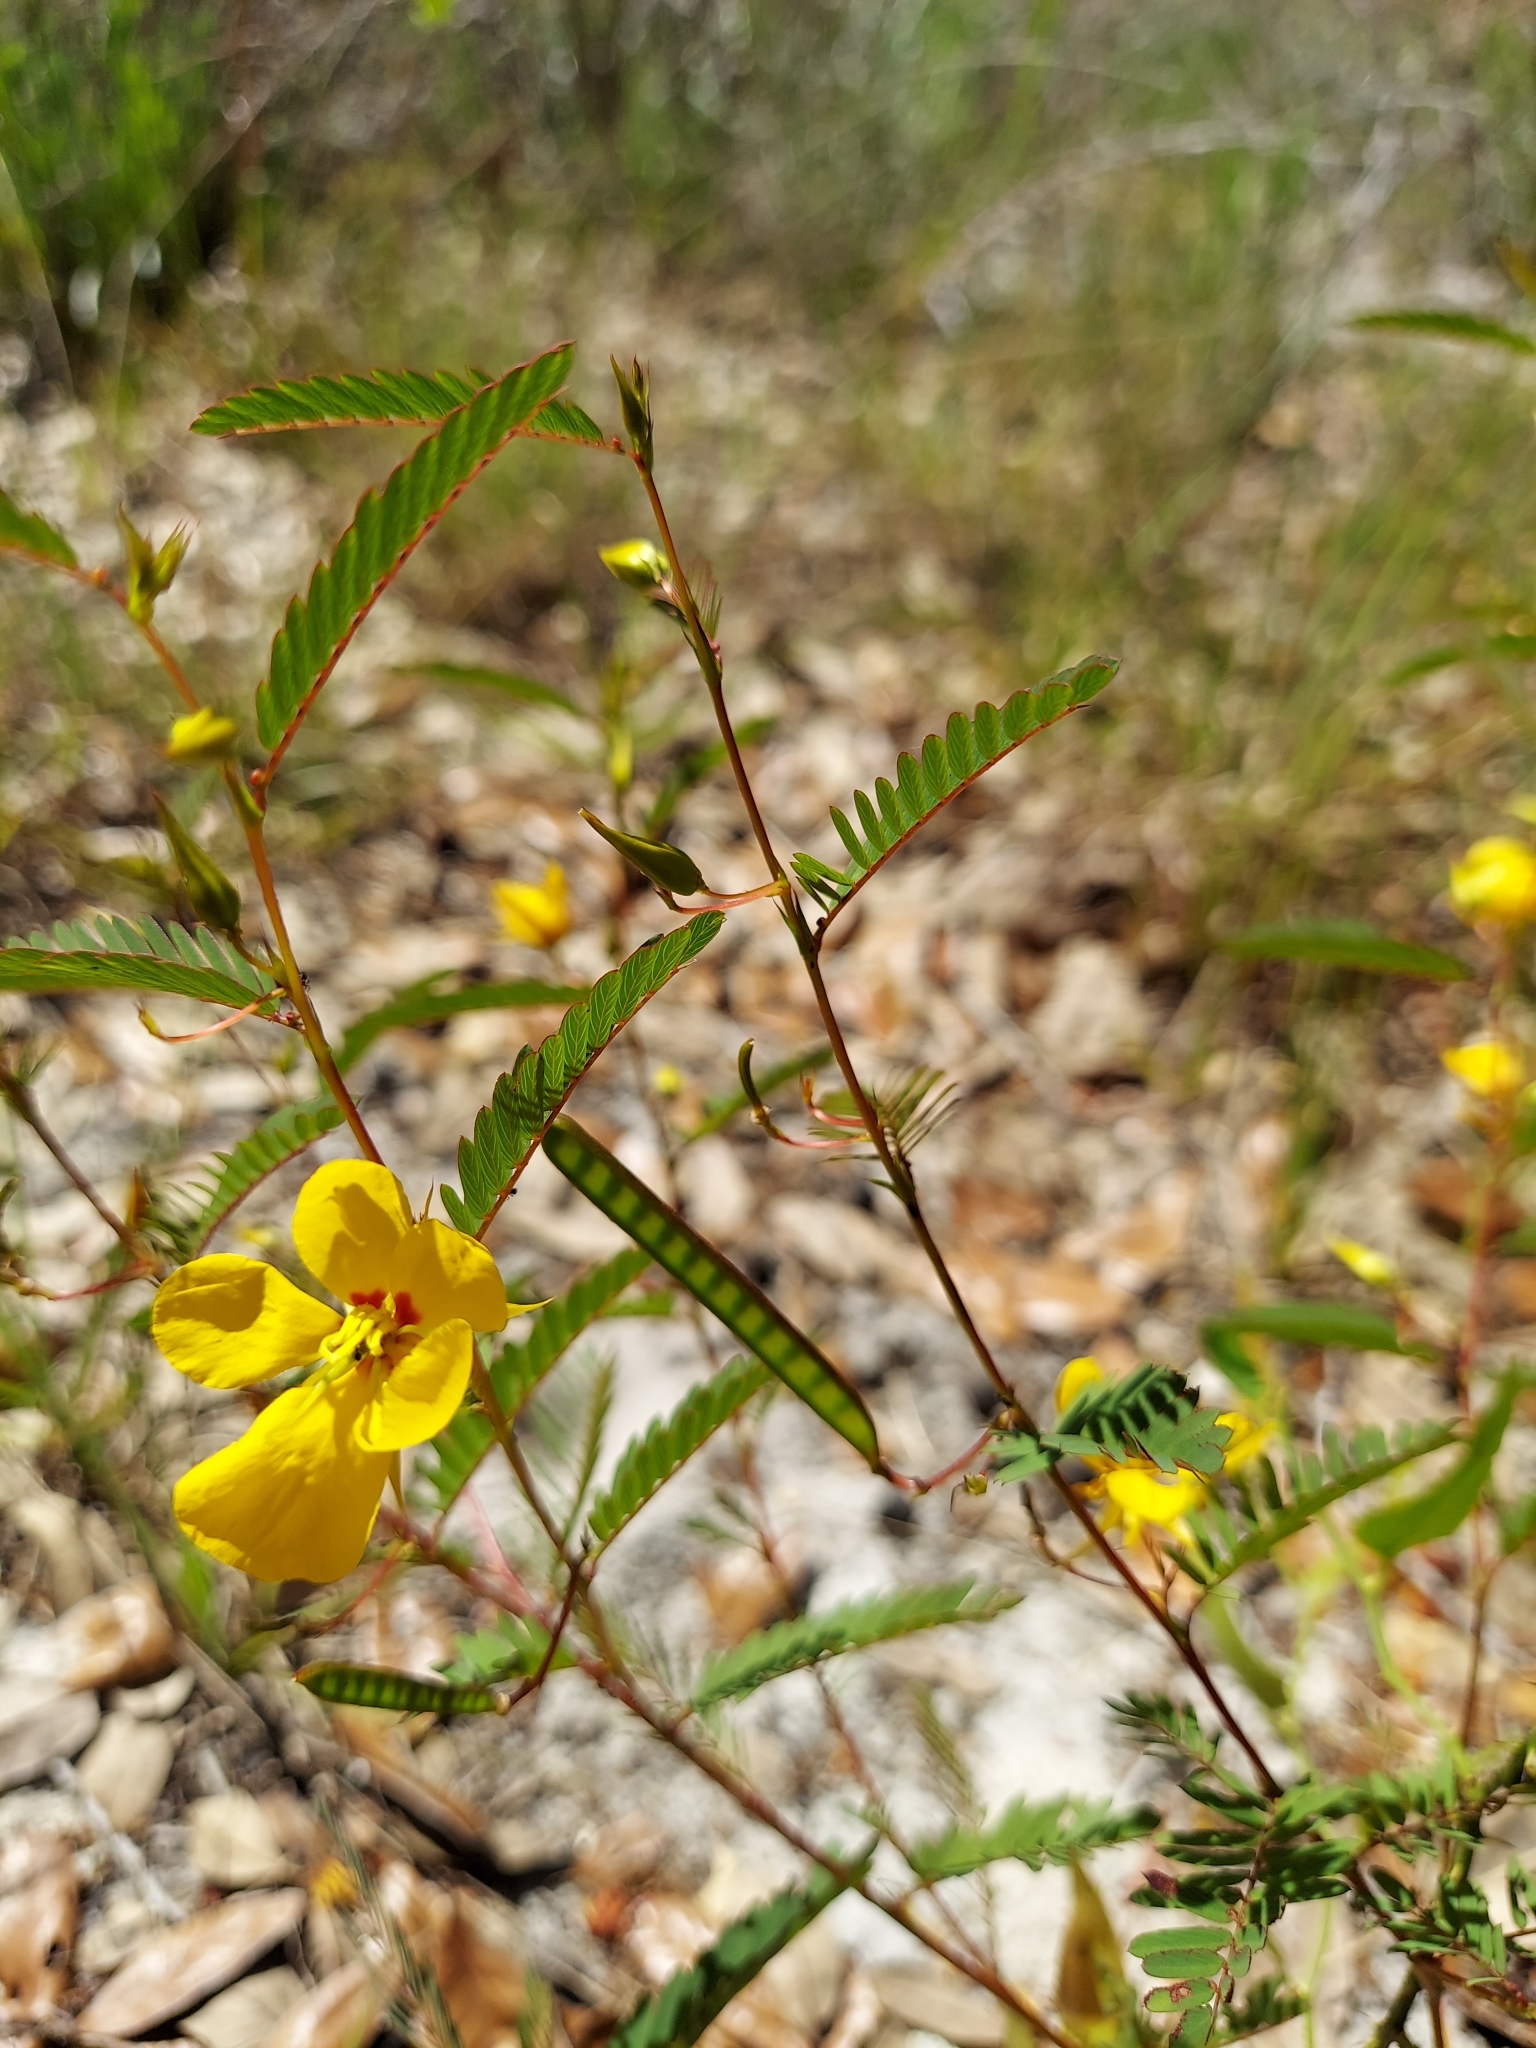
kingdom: Plantae
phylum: Tracheophyta
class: Magnoliopsida
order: Fabales
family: Fabaceae
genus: Chamaecrista
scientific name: Chamaecrista fasciculata
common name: Golden cassia
